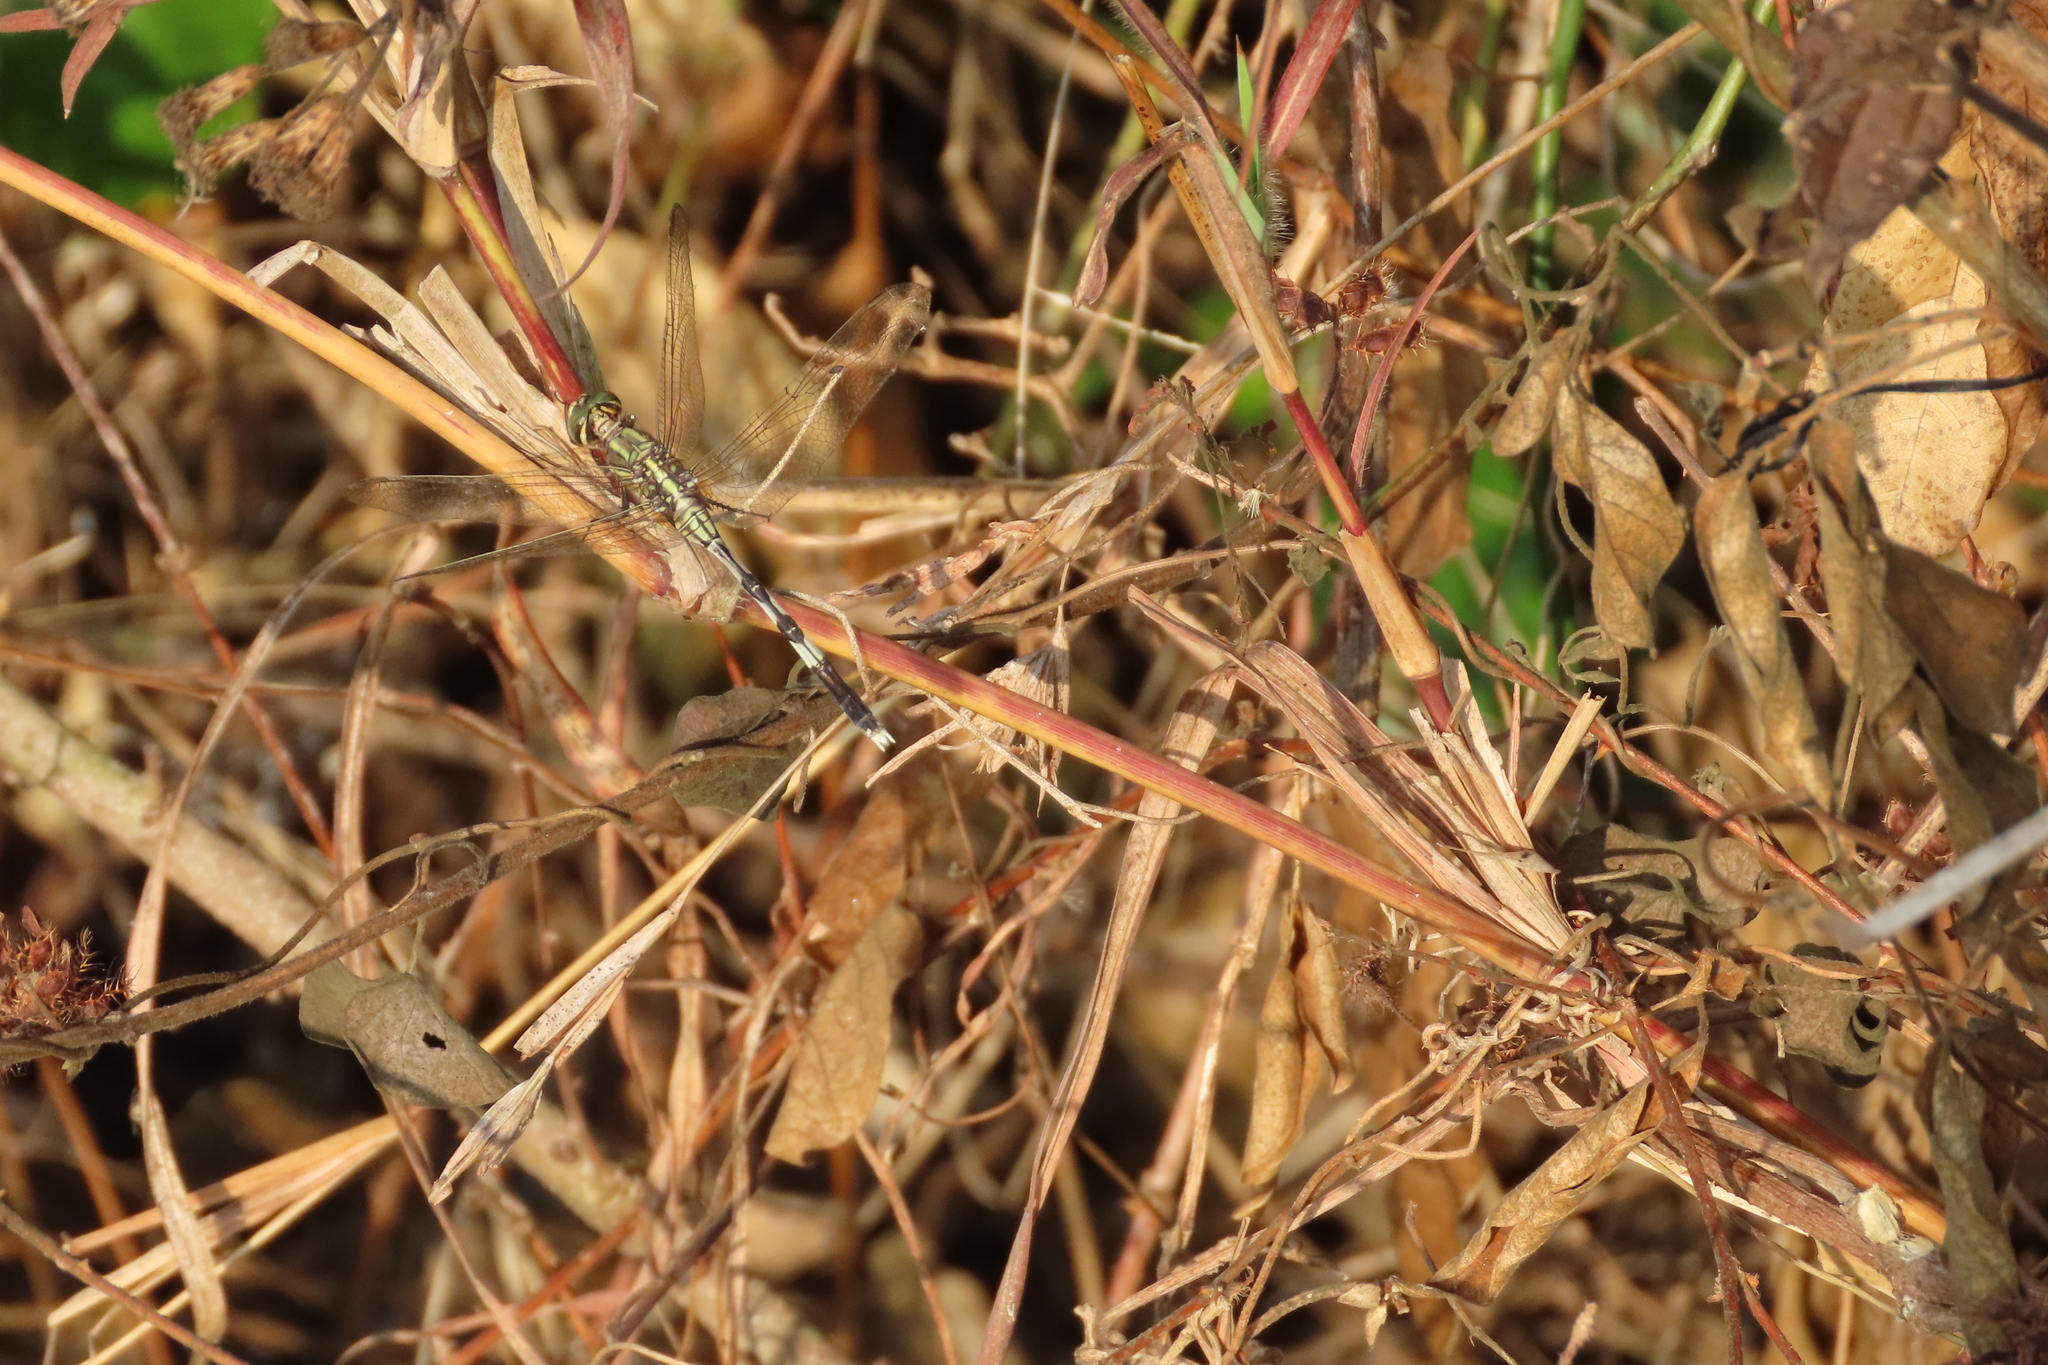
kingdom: Animalia
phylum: Arthropoda
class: Insecta
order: Odonata
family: Libellulidae
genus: Orthetrum
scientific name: Orthetrum sabina
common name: Slender skimmer
